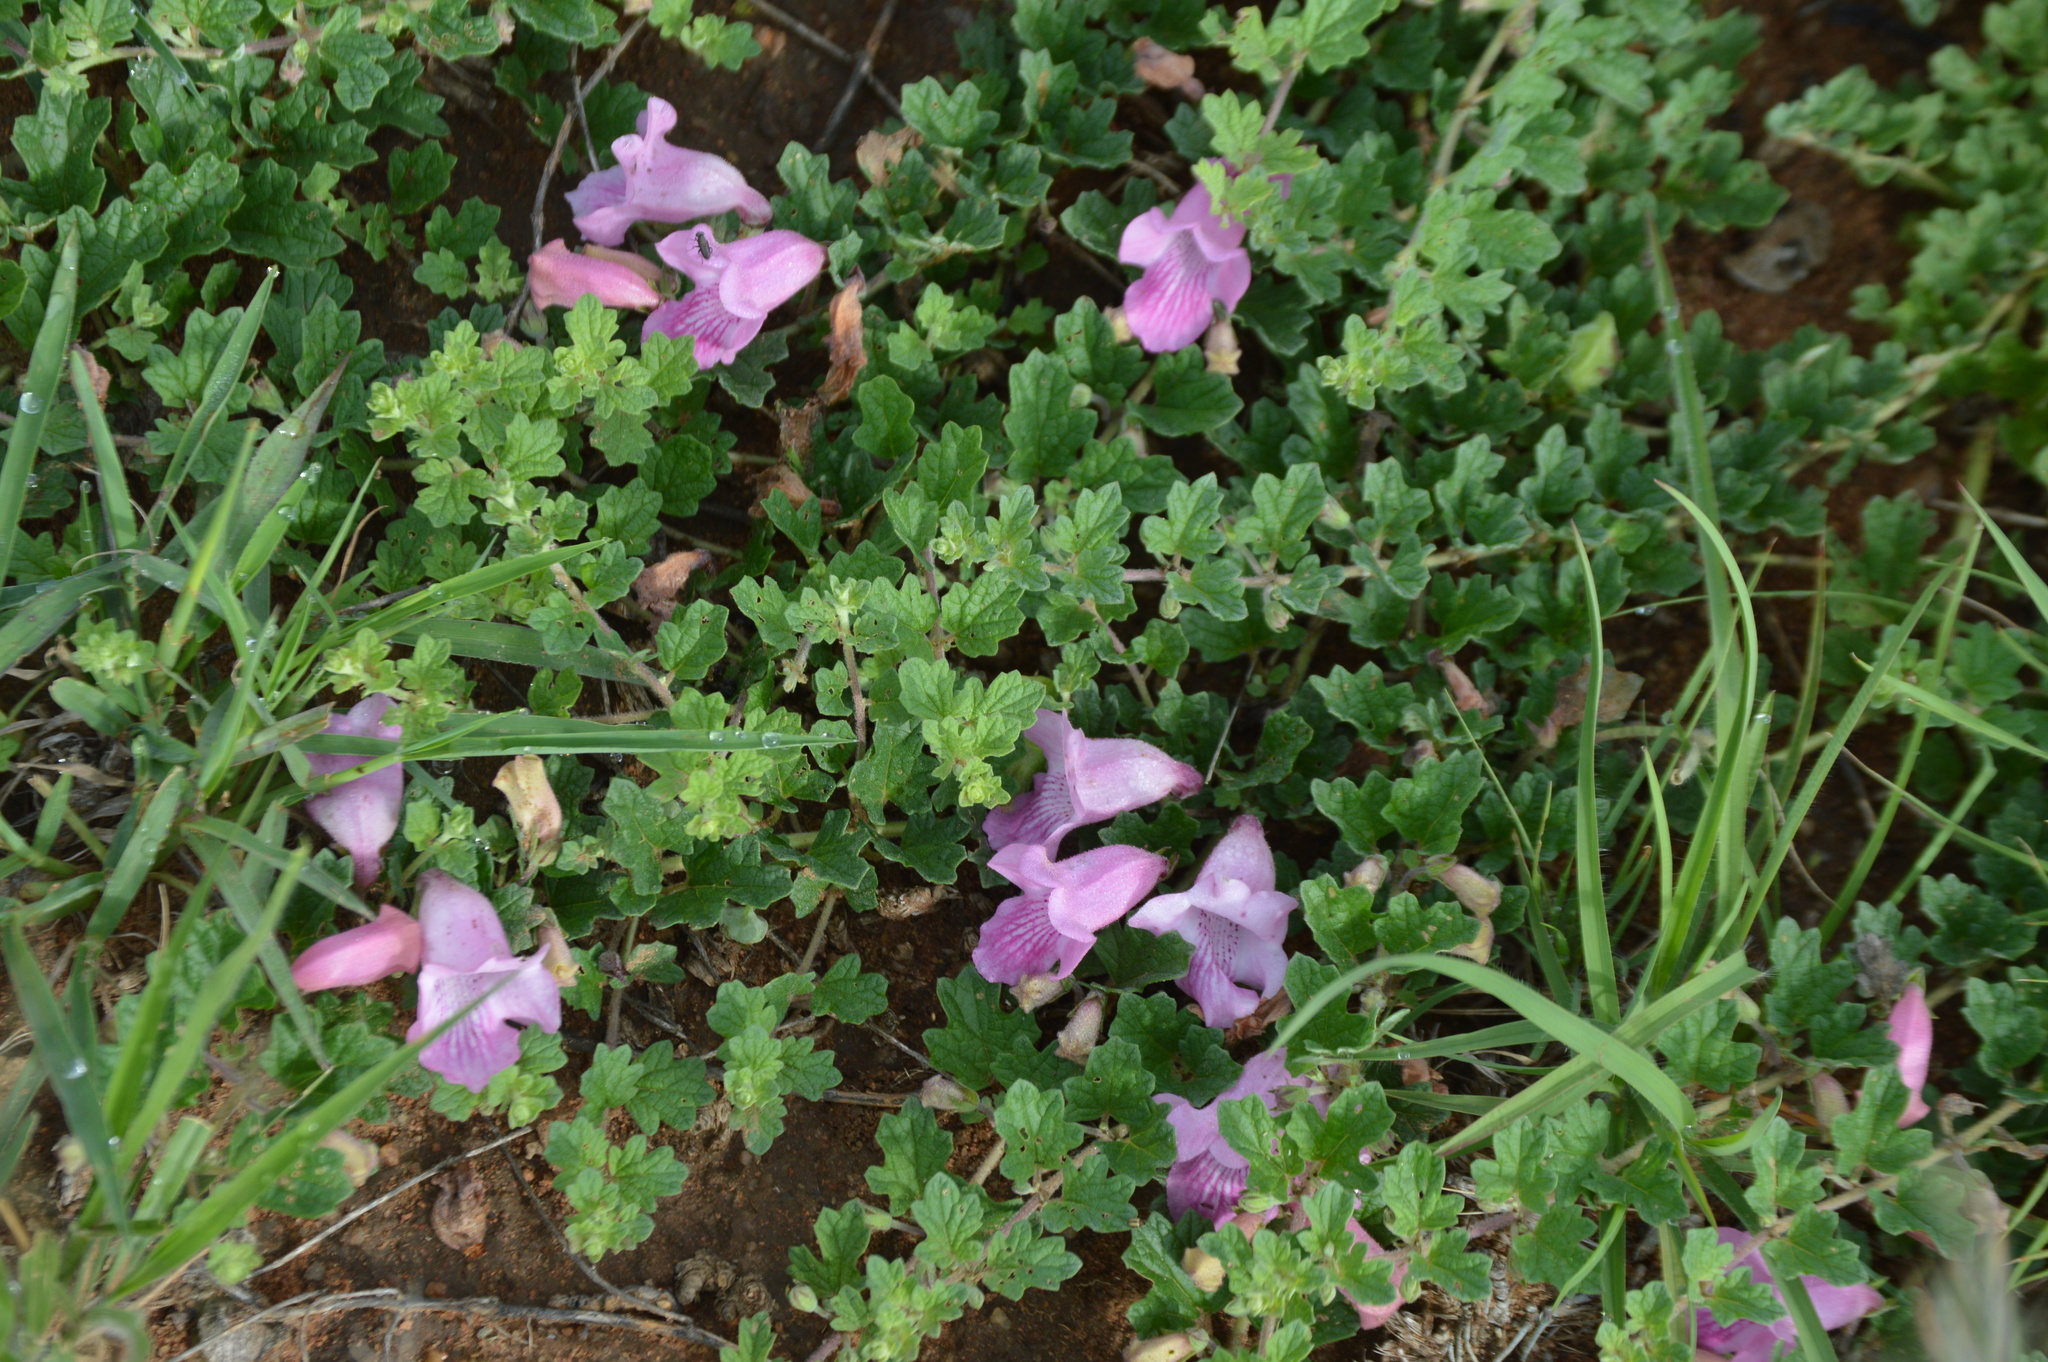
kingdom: Plantae
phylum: Tracheophyta
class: Magnoliopsida
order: Lamiales
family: Pedaliaceae
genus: Dicerocaryum
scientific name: Dicerocaryum eriocarpum
